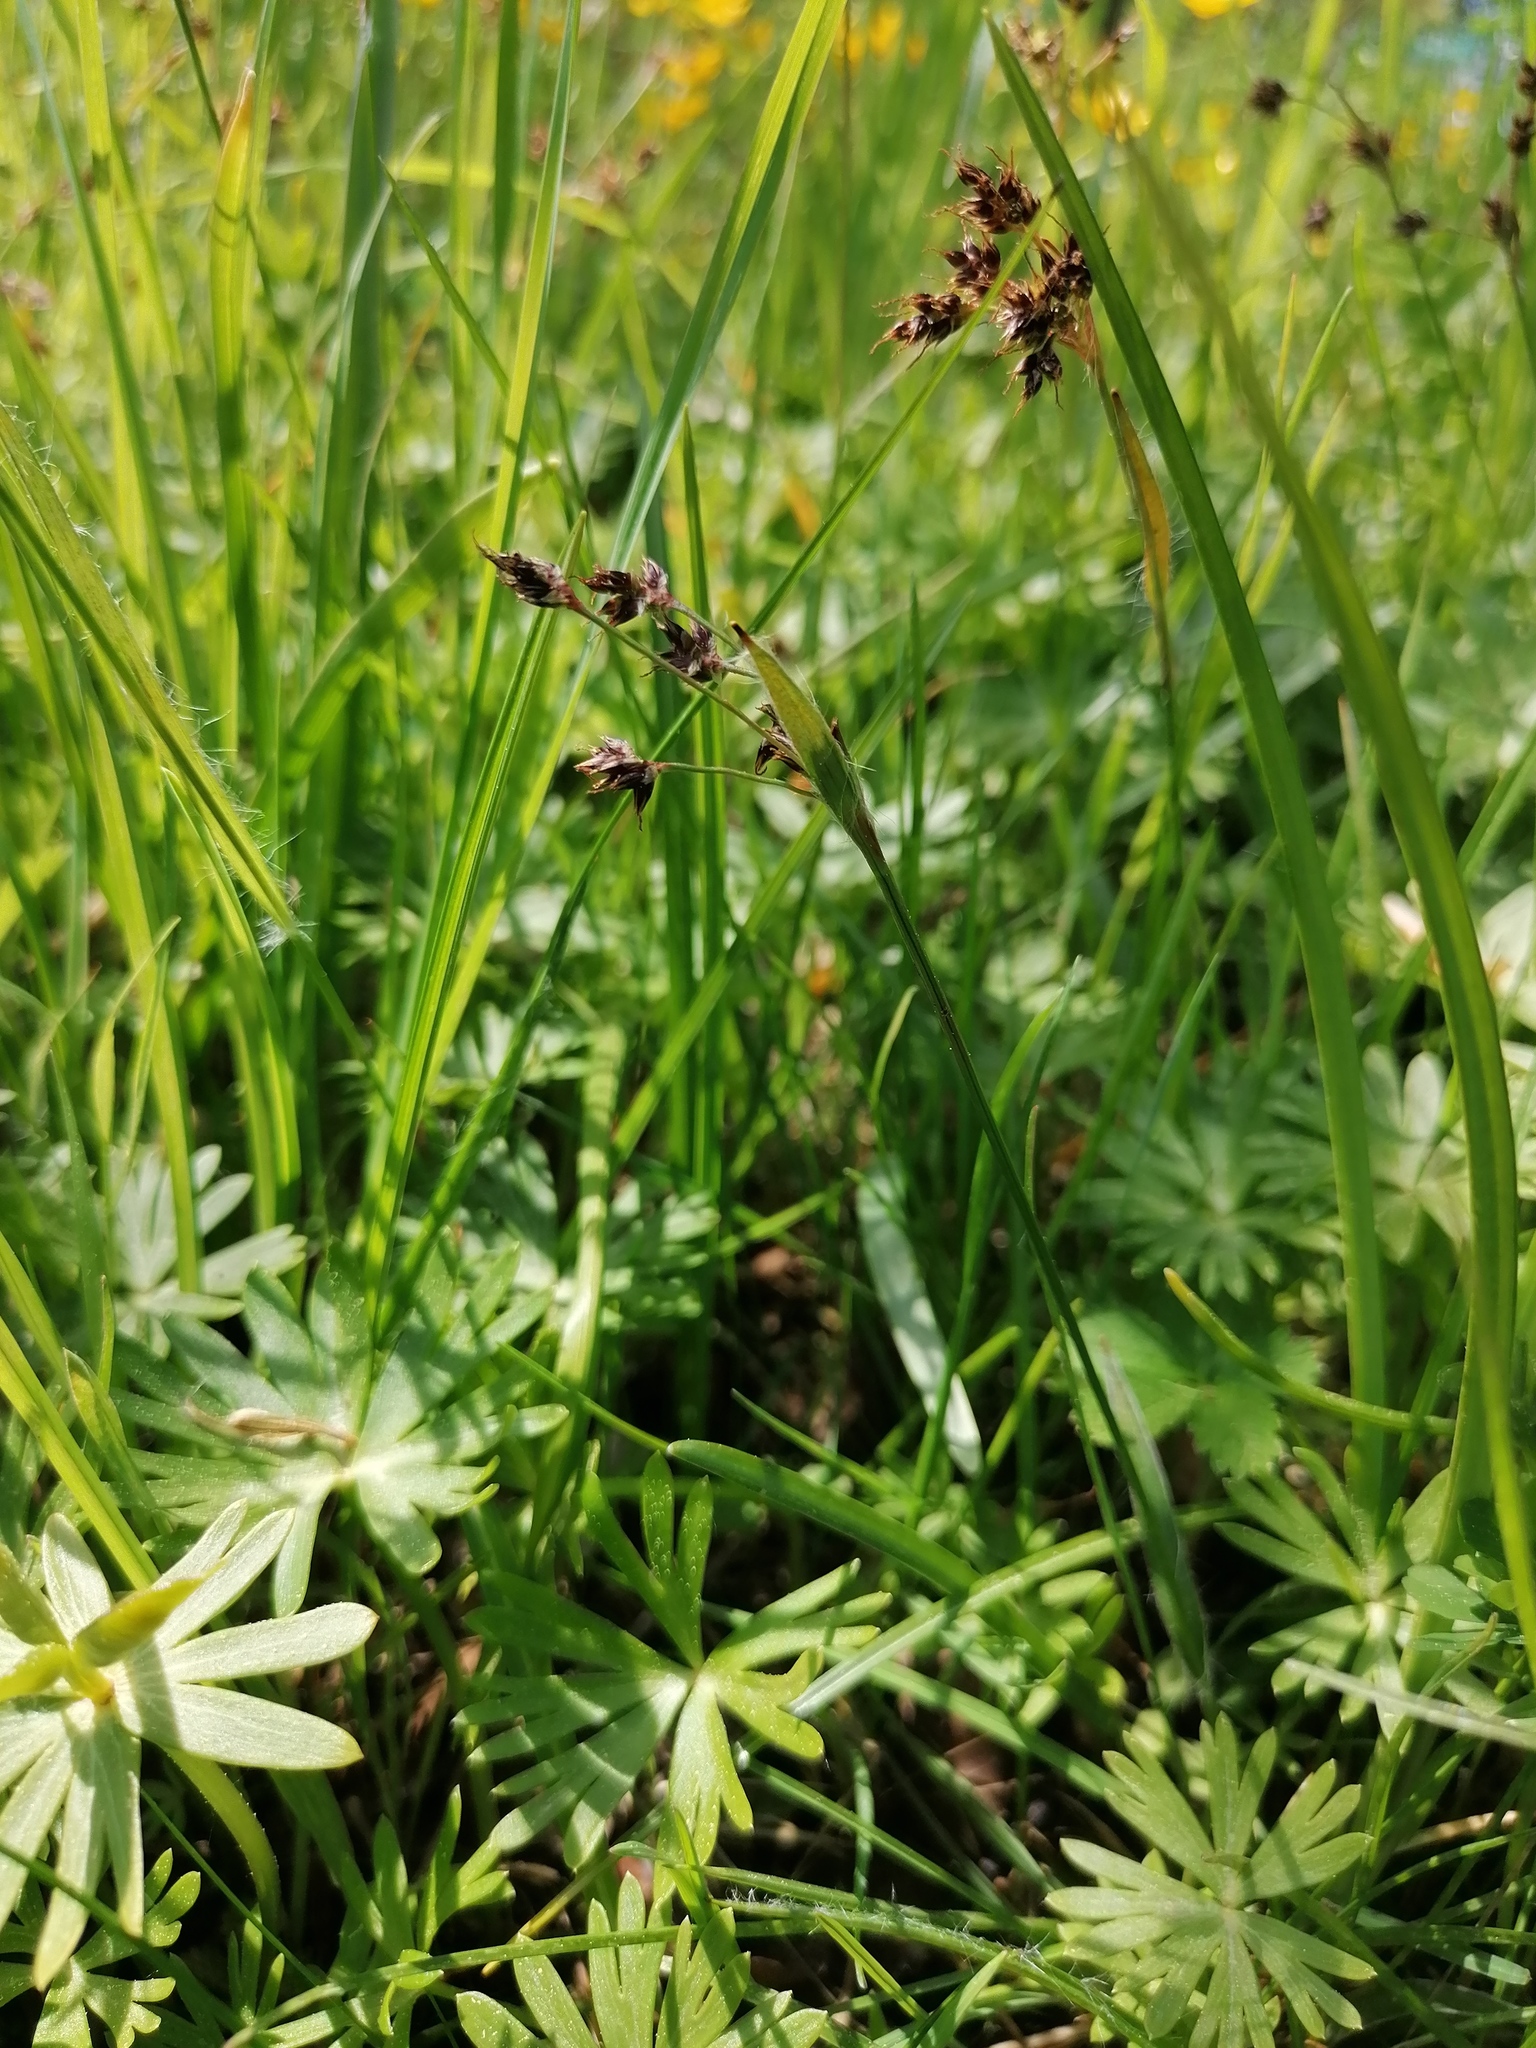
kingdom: Plantae
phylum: Tracheophyta
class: Liliopsida
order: Poales
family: Juncaceae
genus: Luzula
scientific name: Luzula campestris
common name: Field wood-rush
